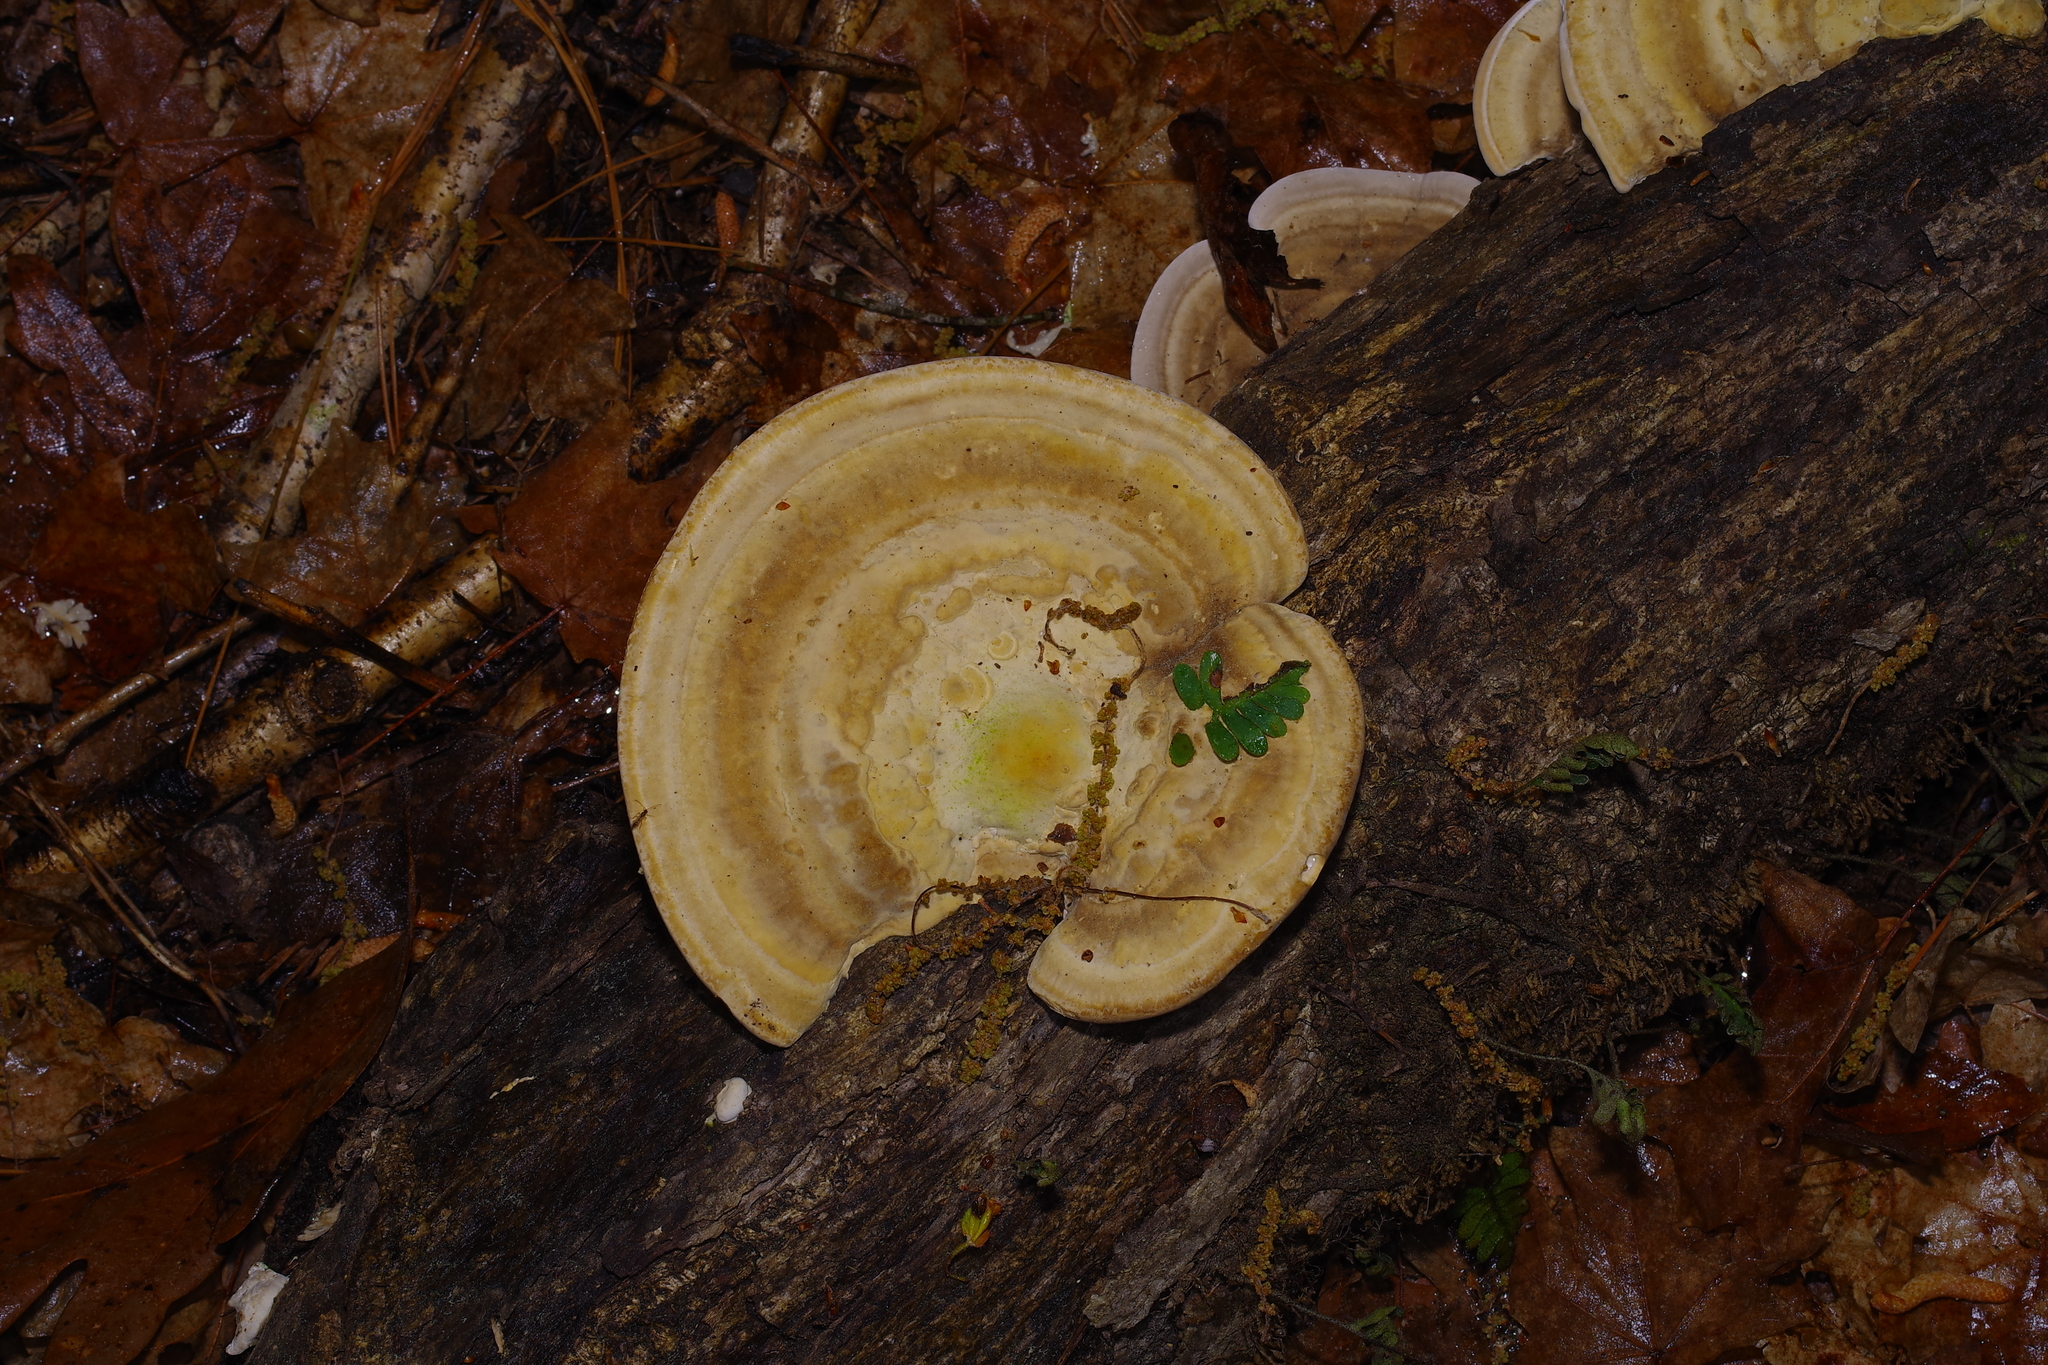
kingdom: Fungi
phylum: Basidiomycota
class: Agaricomycetes
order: Polyporales
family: Polyporaceae
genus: Trametes
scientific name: Trametes lactinea
